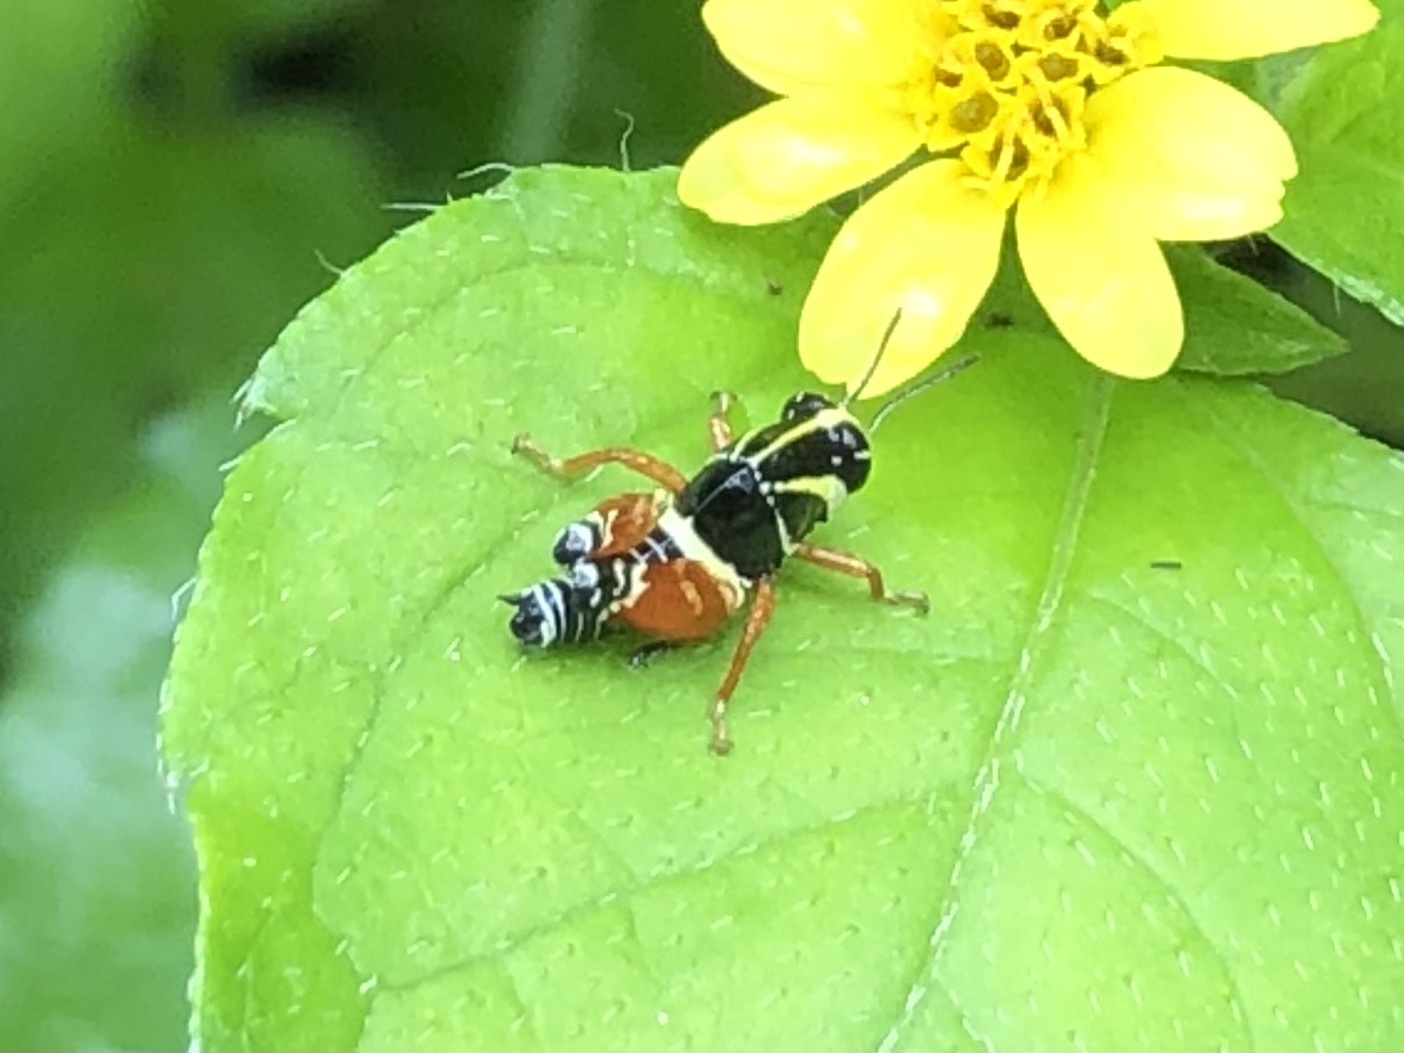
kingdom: Animalia
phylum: Arthropoda
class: Insecta
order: Orthoptera
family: Acrididae
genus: Aidemona
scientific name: Aidemona azteca
